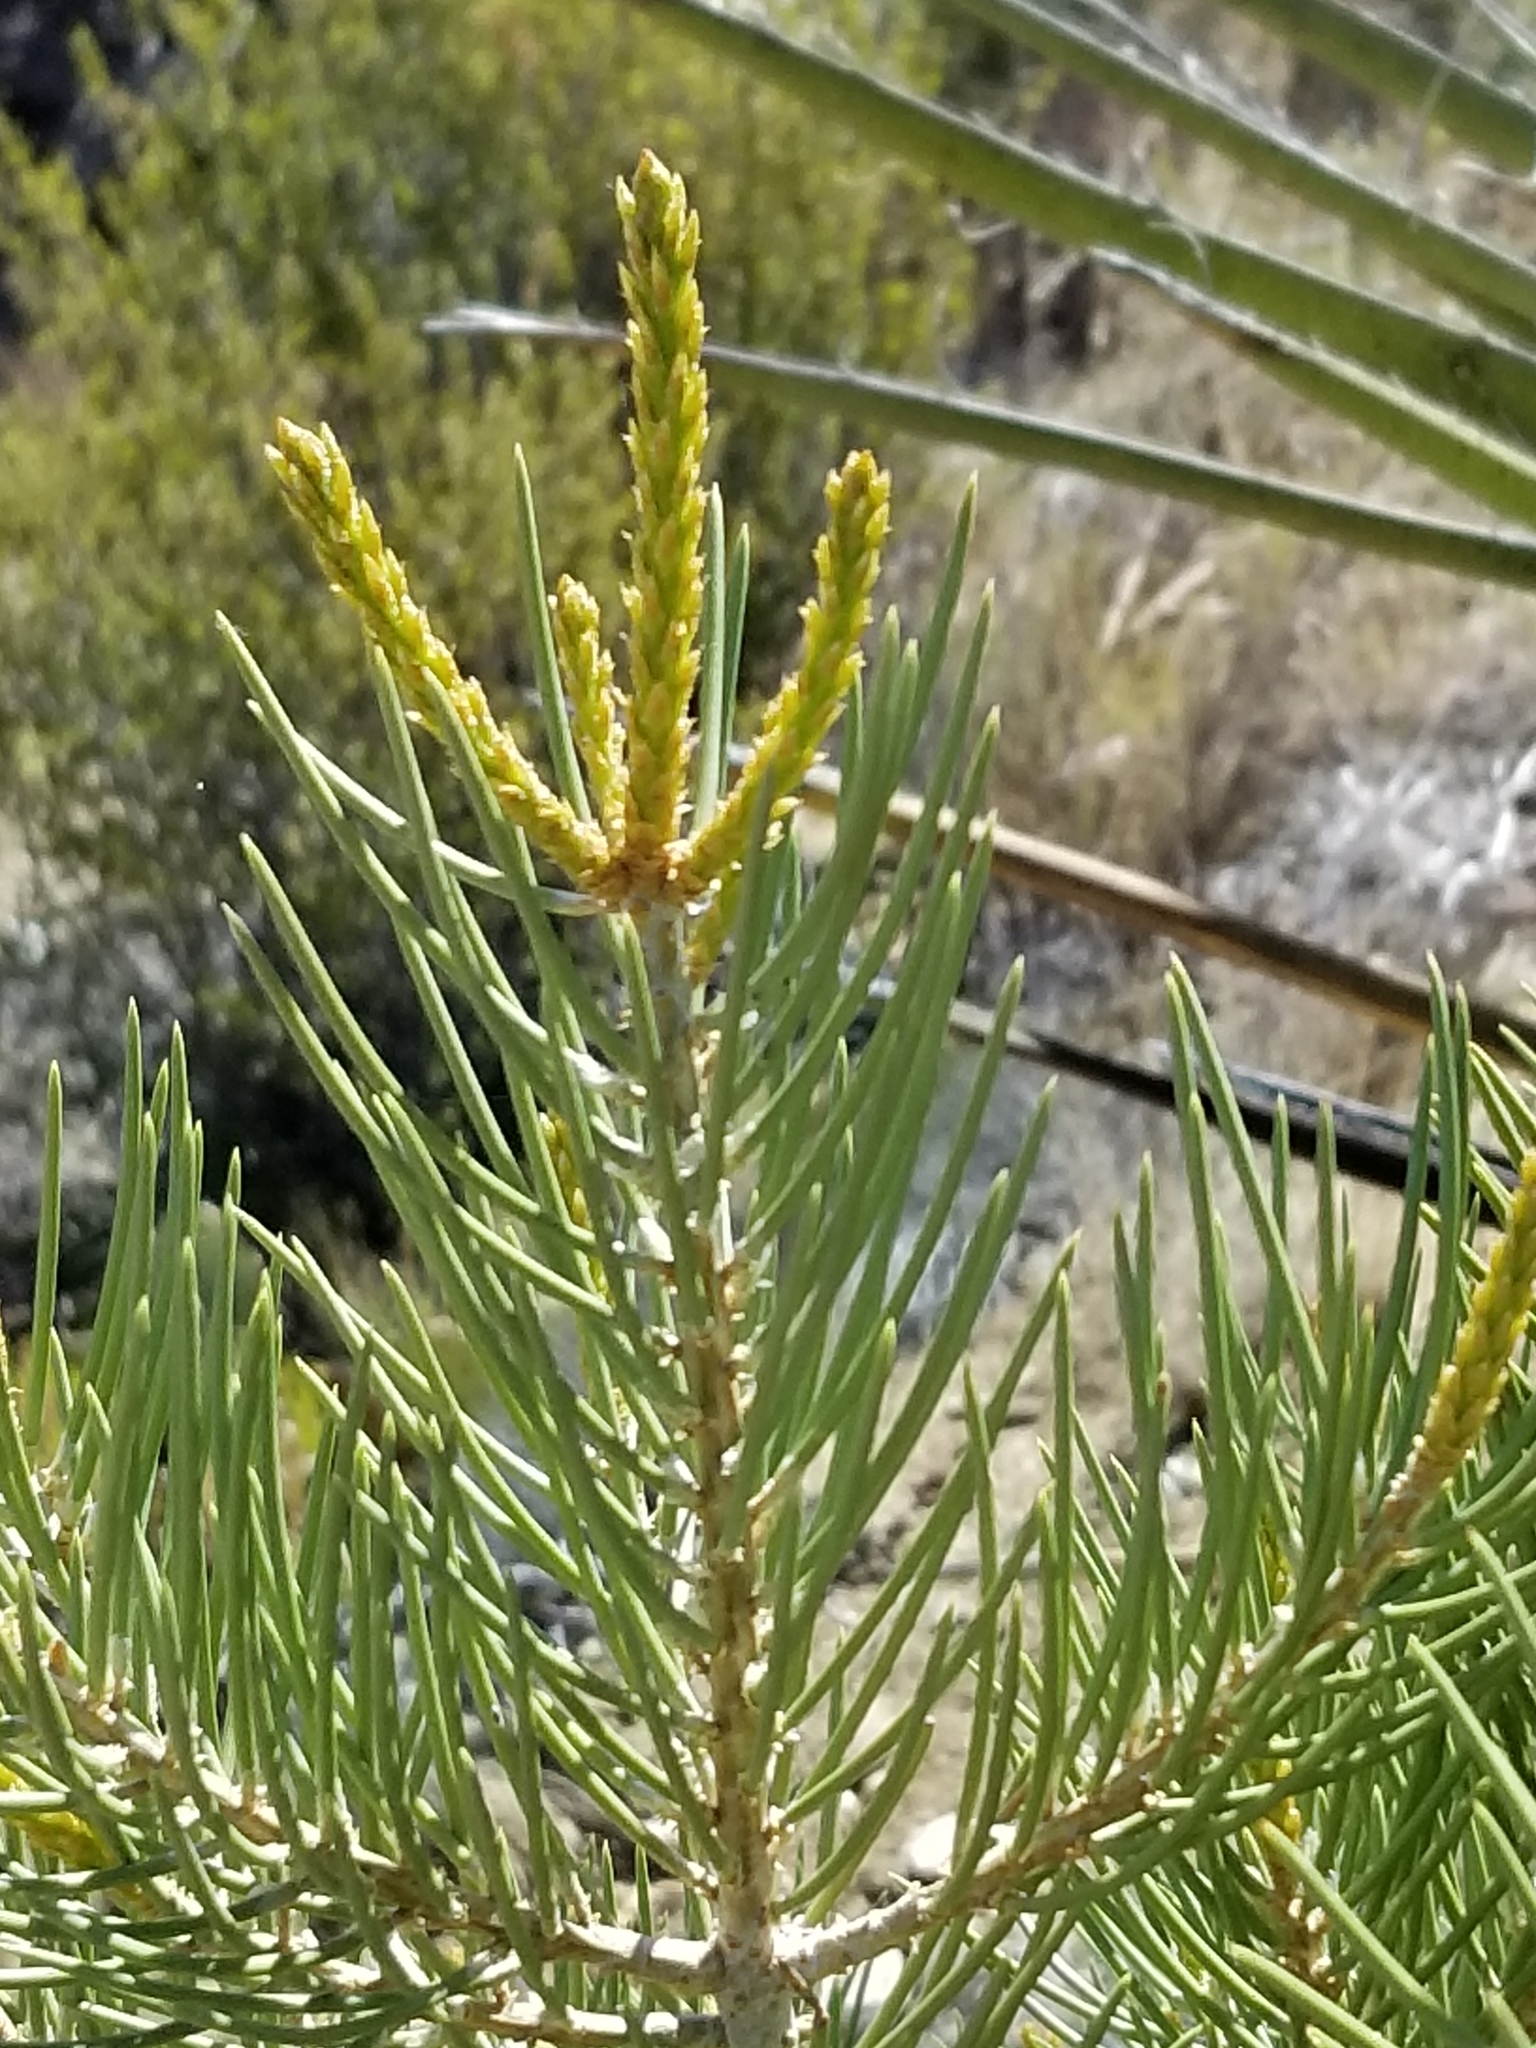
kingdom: Plantae
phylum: Tracheophyta
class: Pinopsida
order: Pinales
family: Pinaceae
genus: Pinus
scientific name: Pinus monophylla
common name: One-leaved nut pine
